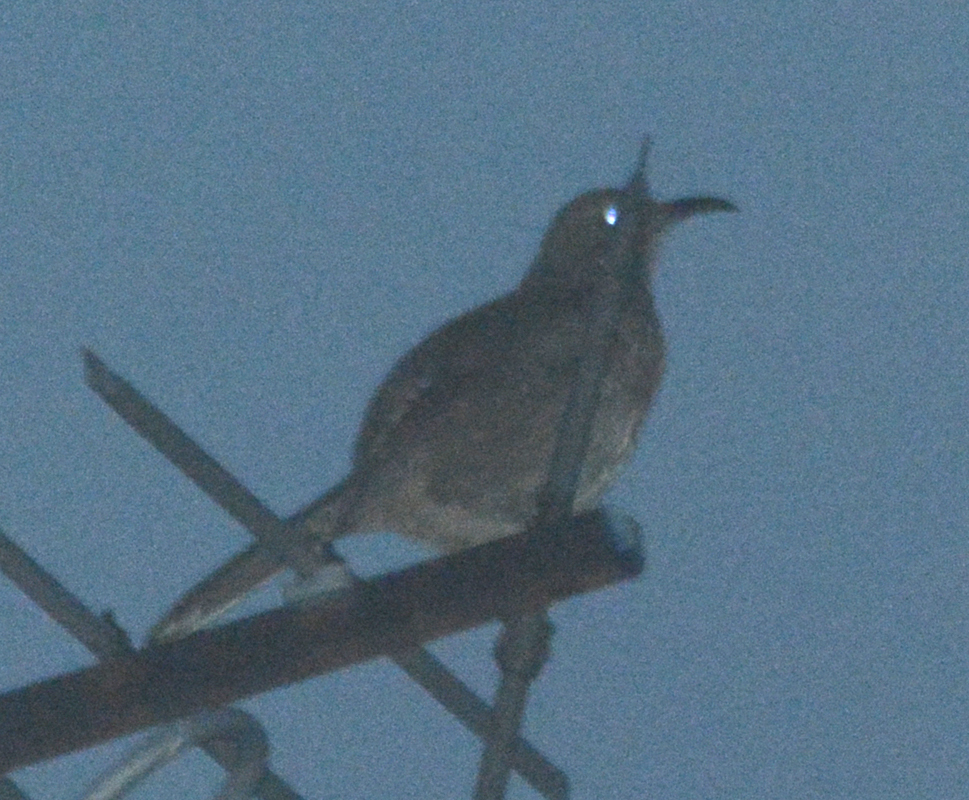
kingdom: Animalia
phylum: Chordata
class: Aves
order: Passeriformes
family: Mimidae
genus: Toxostoma
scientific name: Toxostoma curvirostre
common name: Curve-billed thrasher
